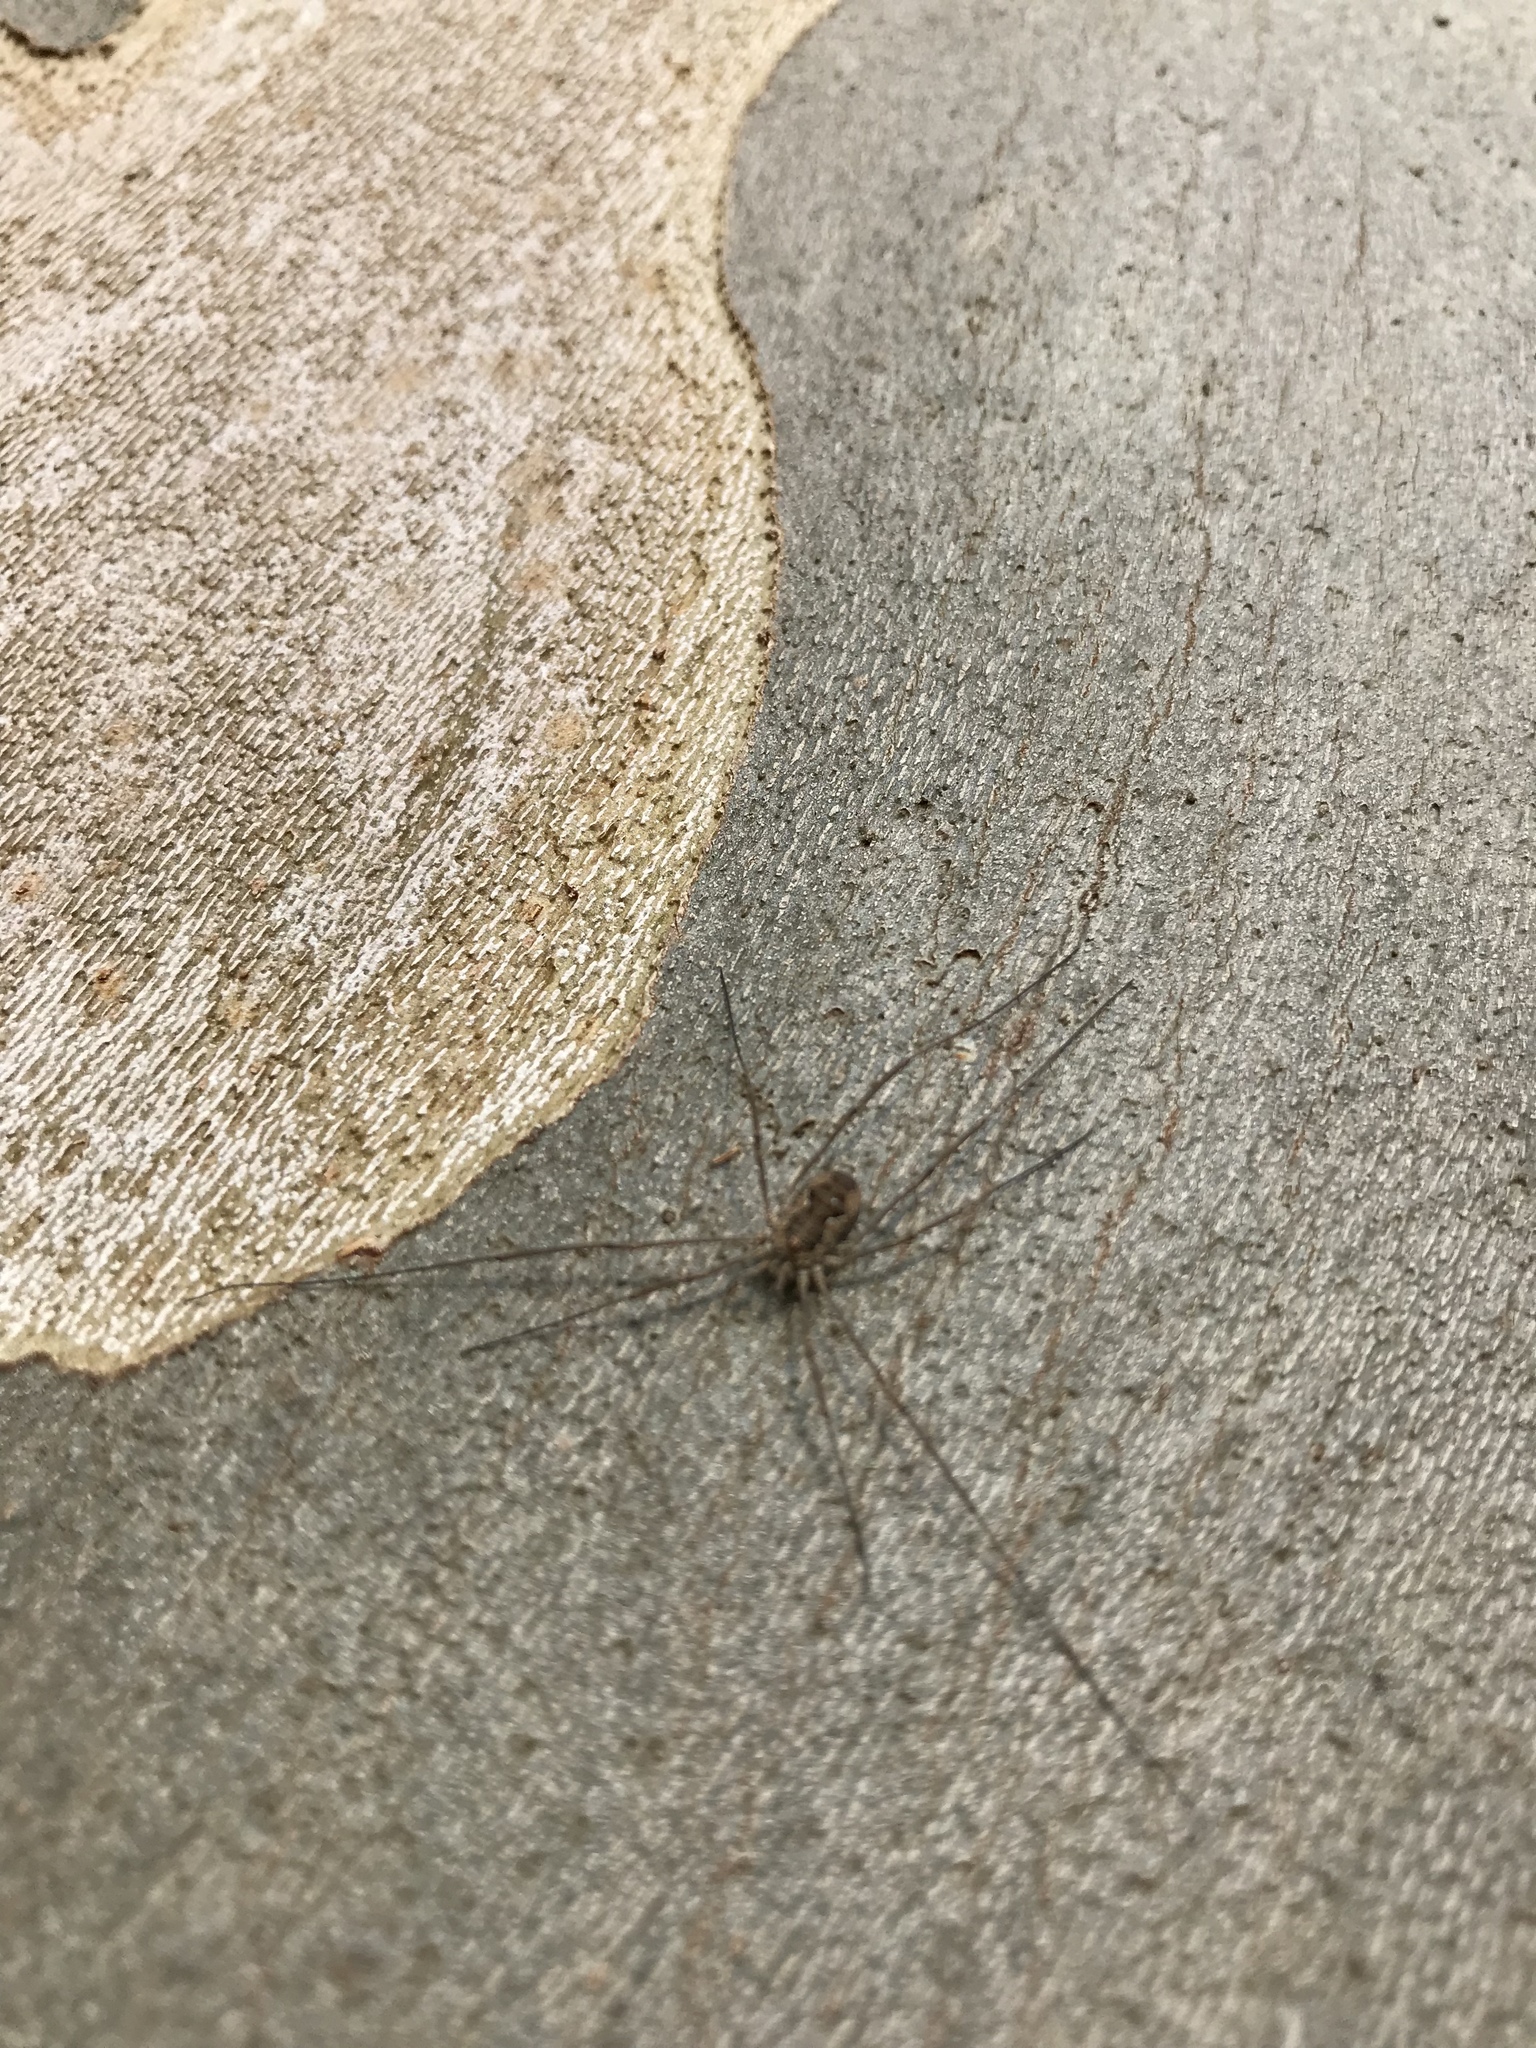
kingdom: Animalia
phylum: Arthropoda
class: Arachnida
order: Opiliones
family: Phalangiidae
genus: Phalangium
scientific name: Phalangium opilio
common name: Daddy longleg
